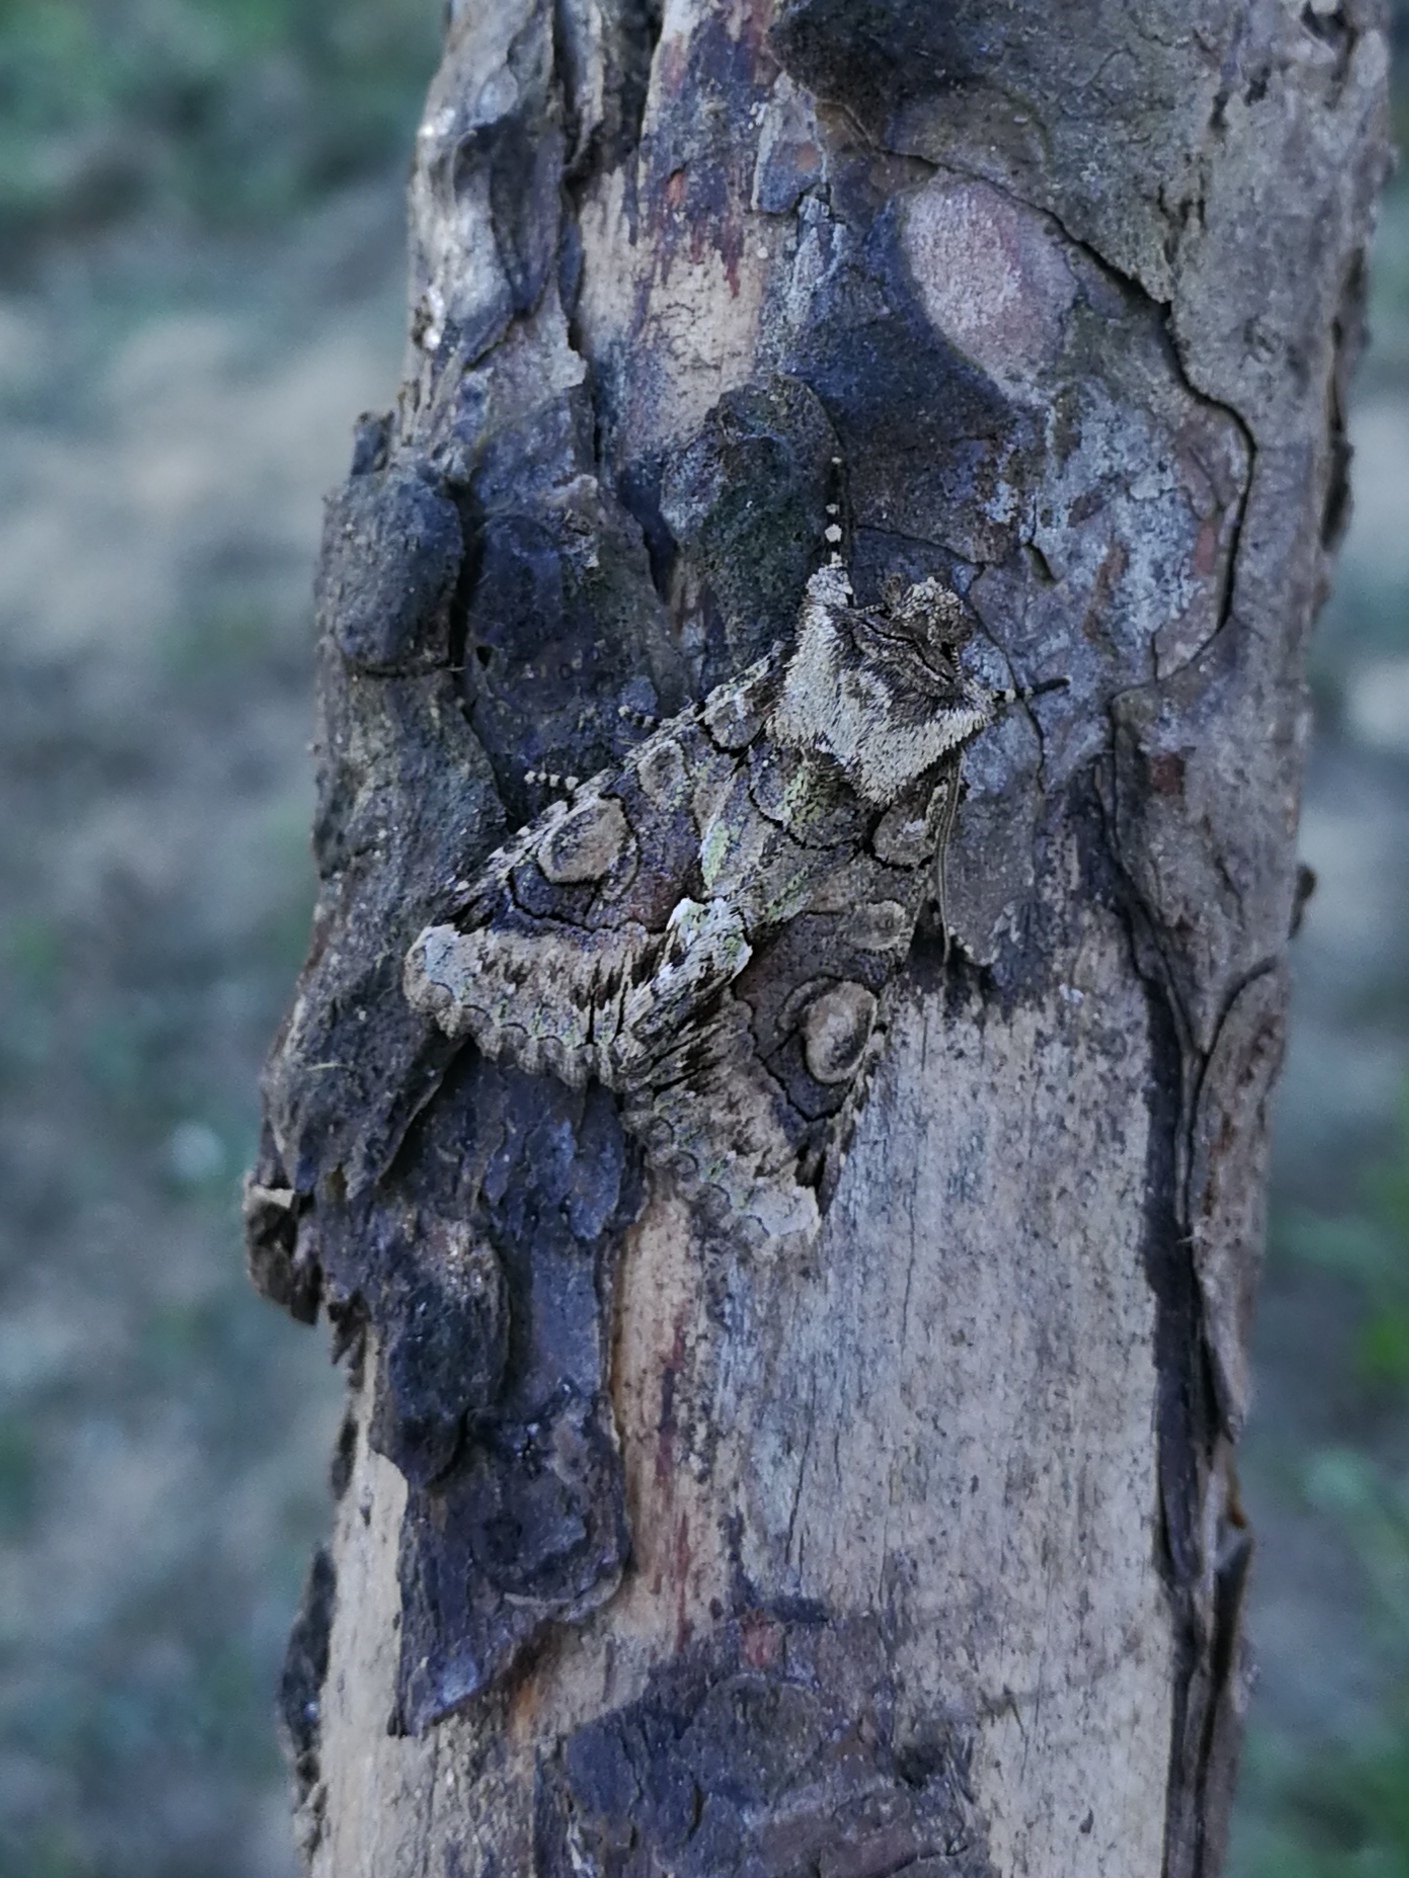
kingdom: Animalia
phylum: Arthropoda
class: Insecta
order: Lepidoptera
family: Noctuidae
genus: Allophyes
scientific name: Allophyes alfaroi
